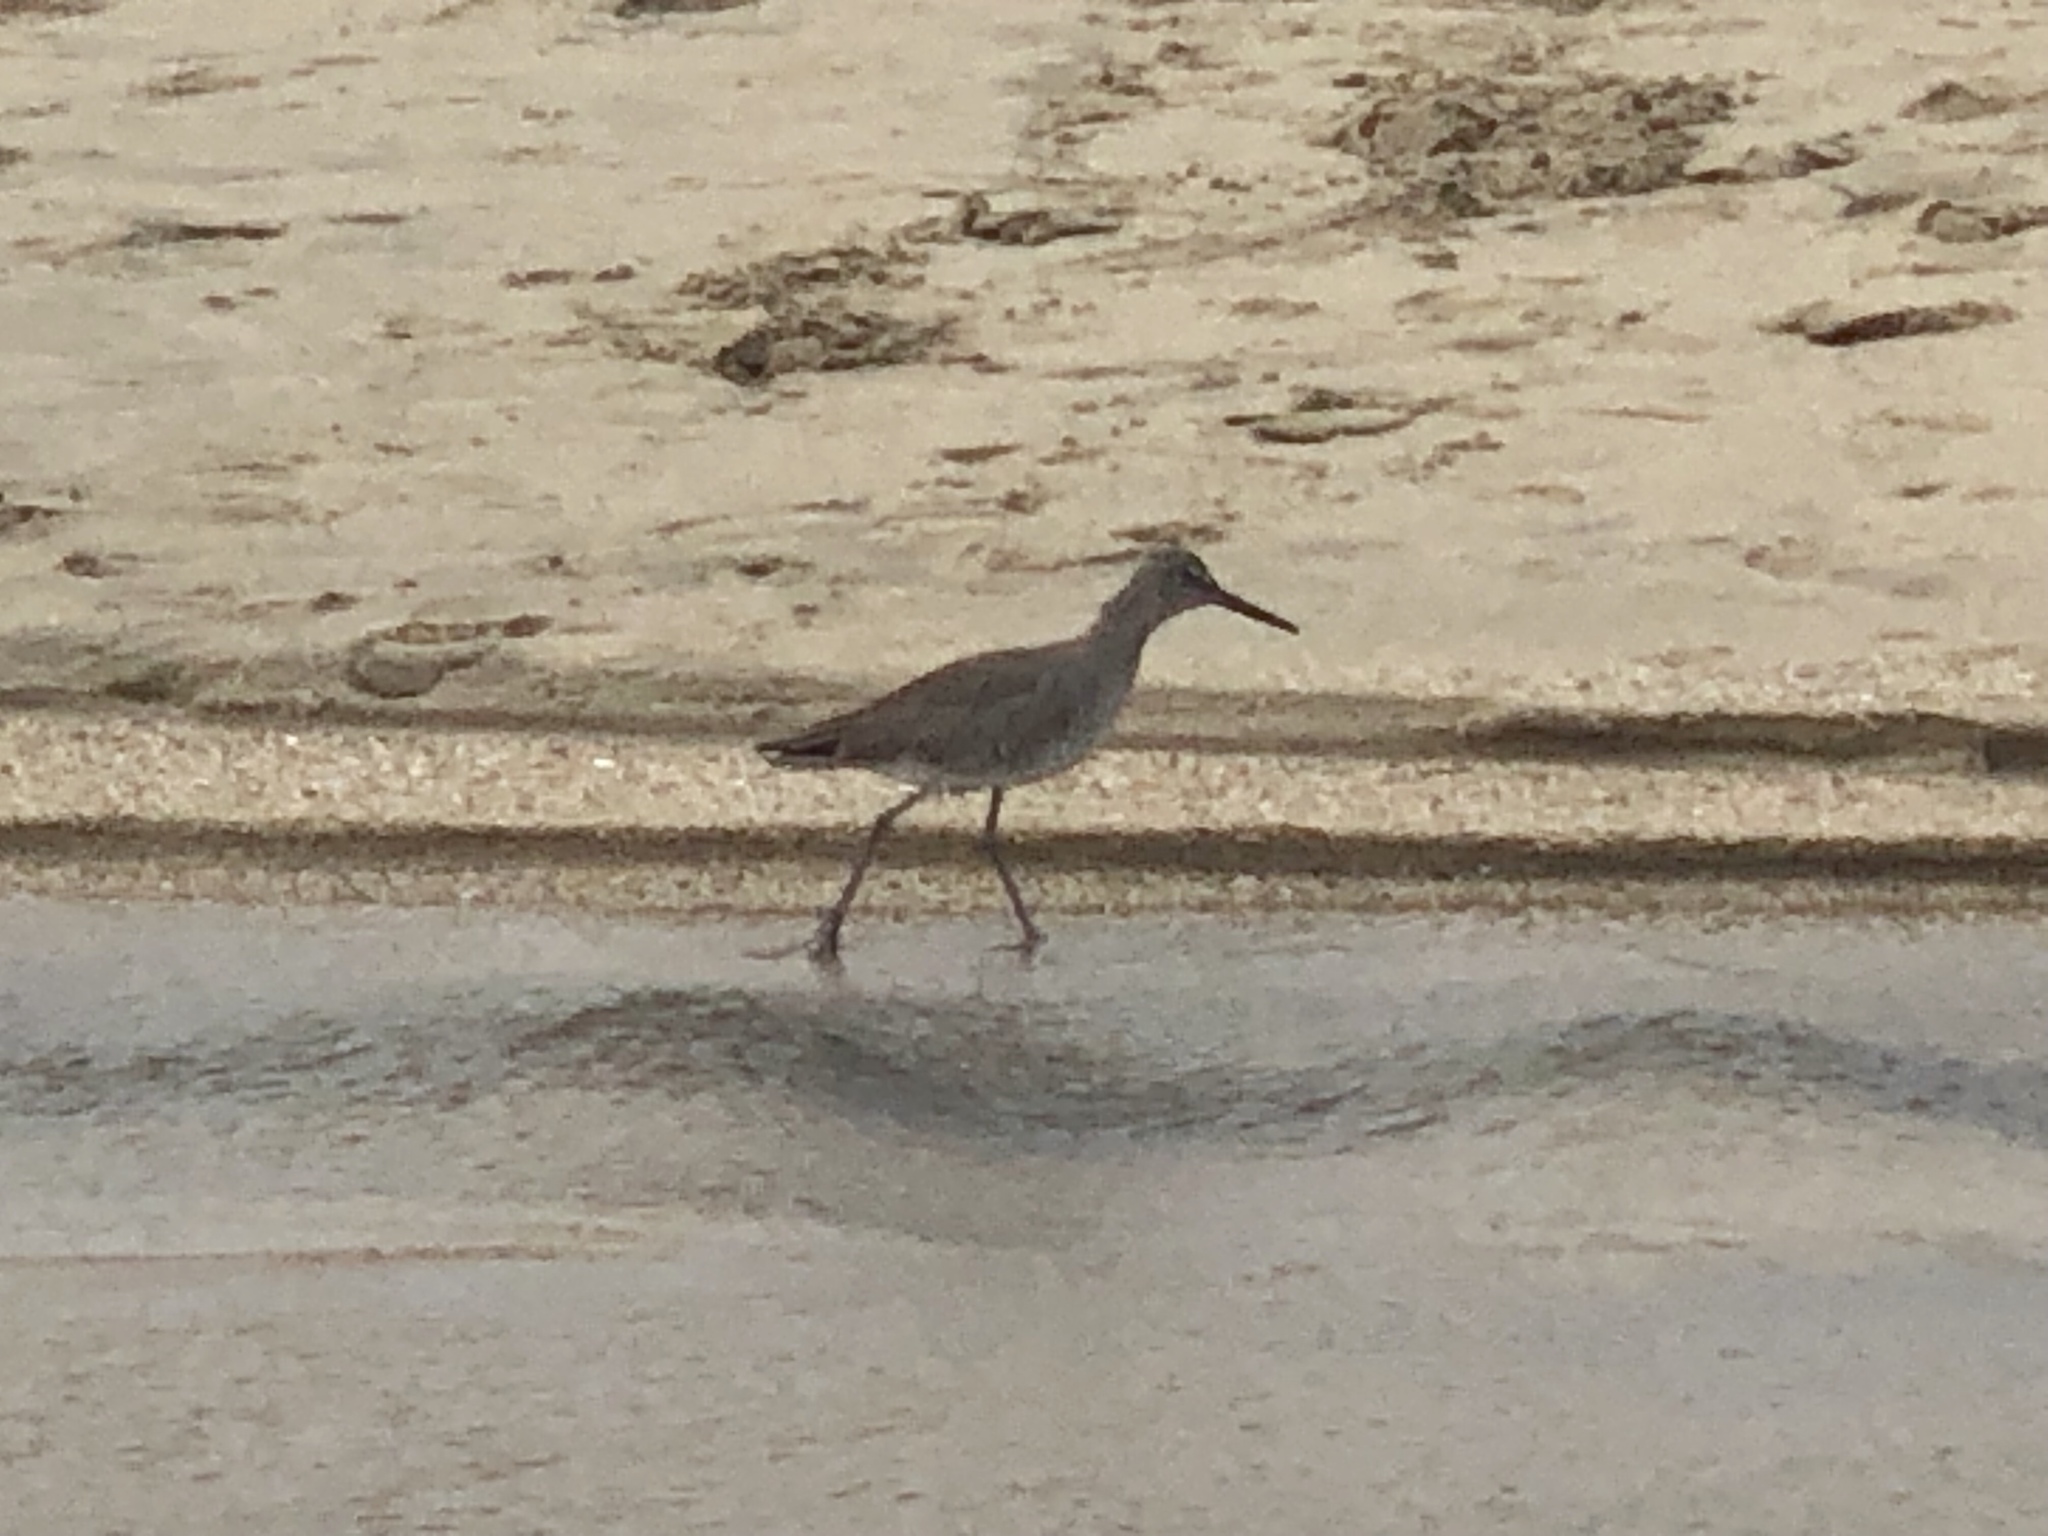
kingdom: Animalia
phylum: Chordata
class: Aves
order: Charadriiformes
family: Scolopacidae
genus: Tringa
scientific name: Tringa semipalmata
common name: Willet
